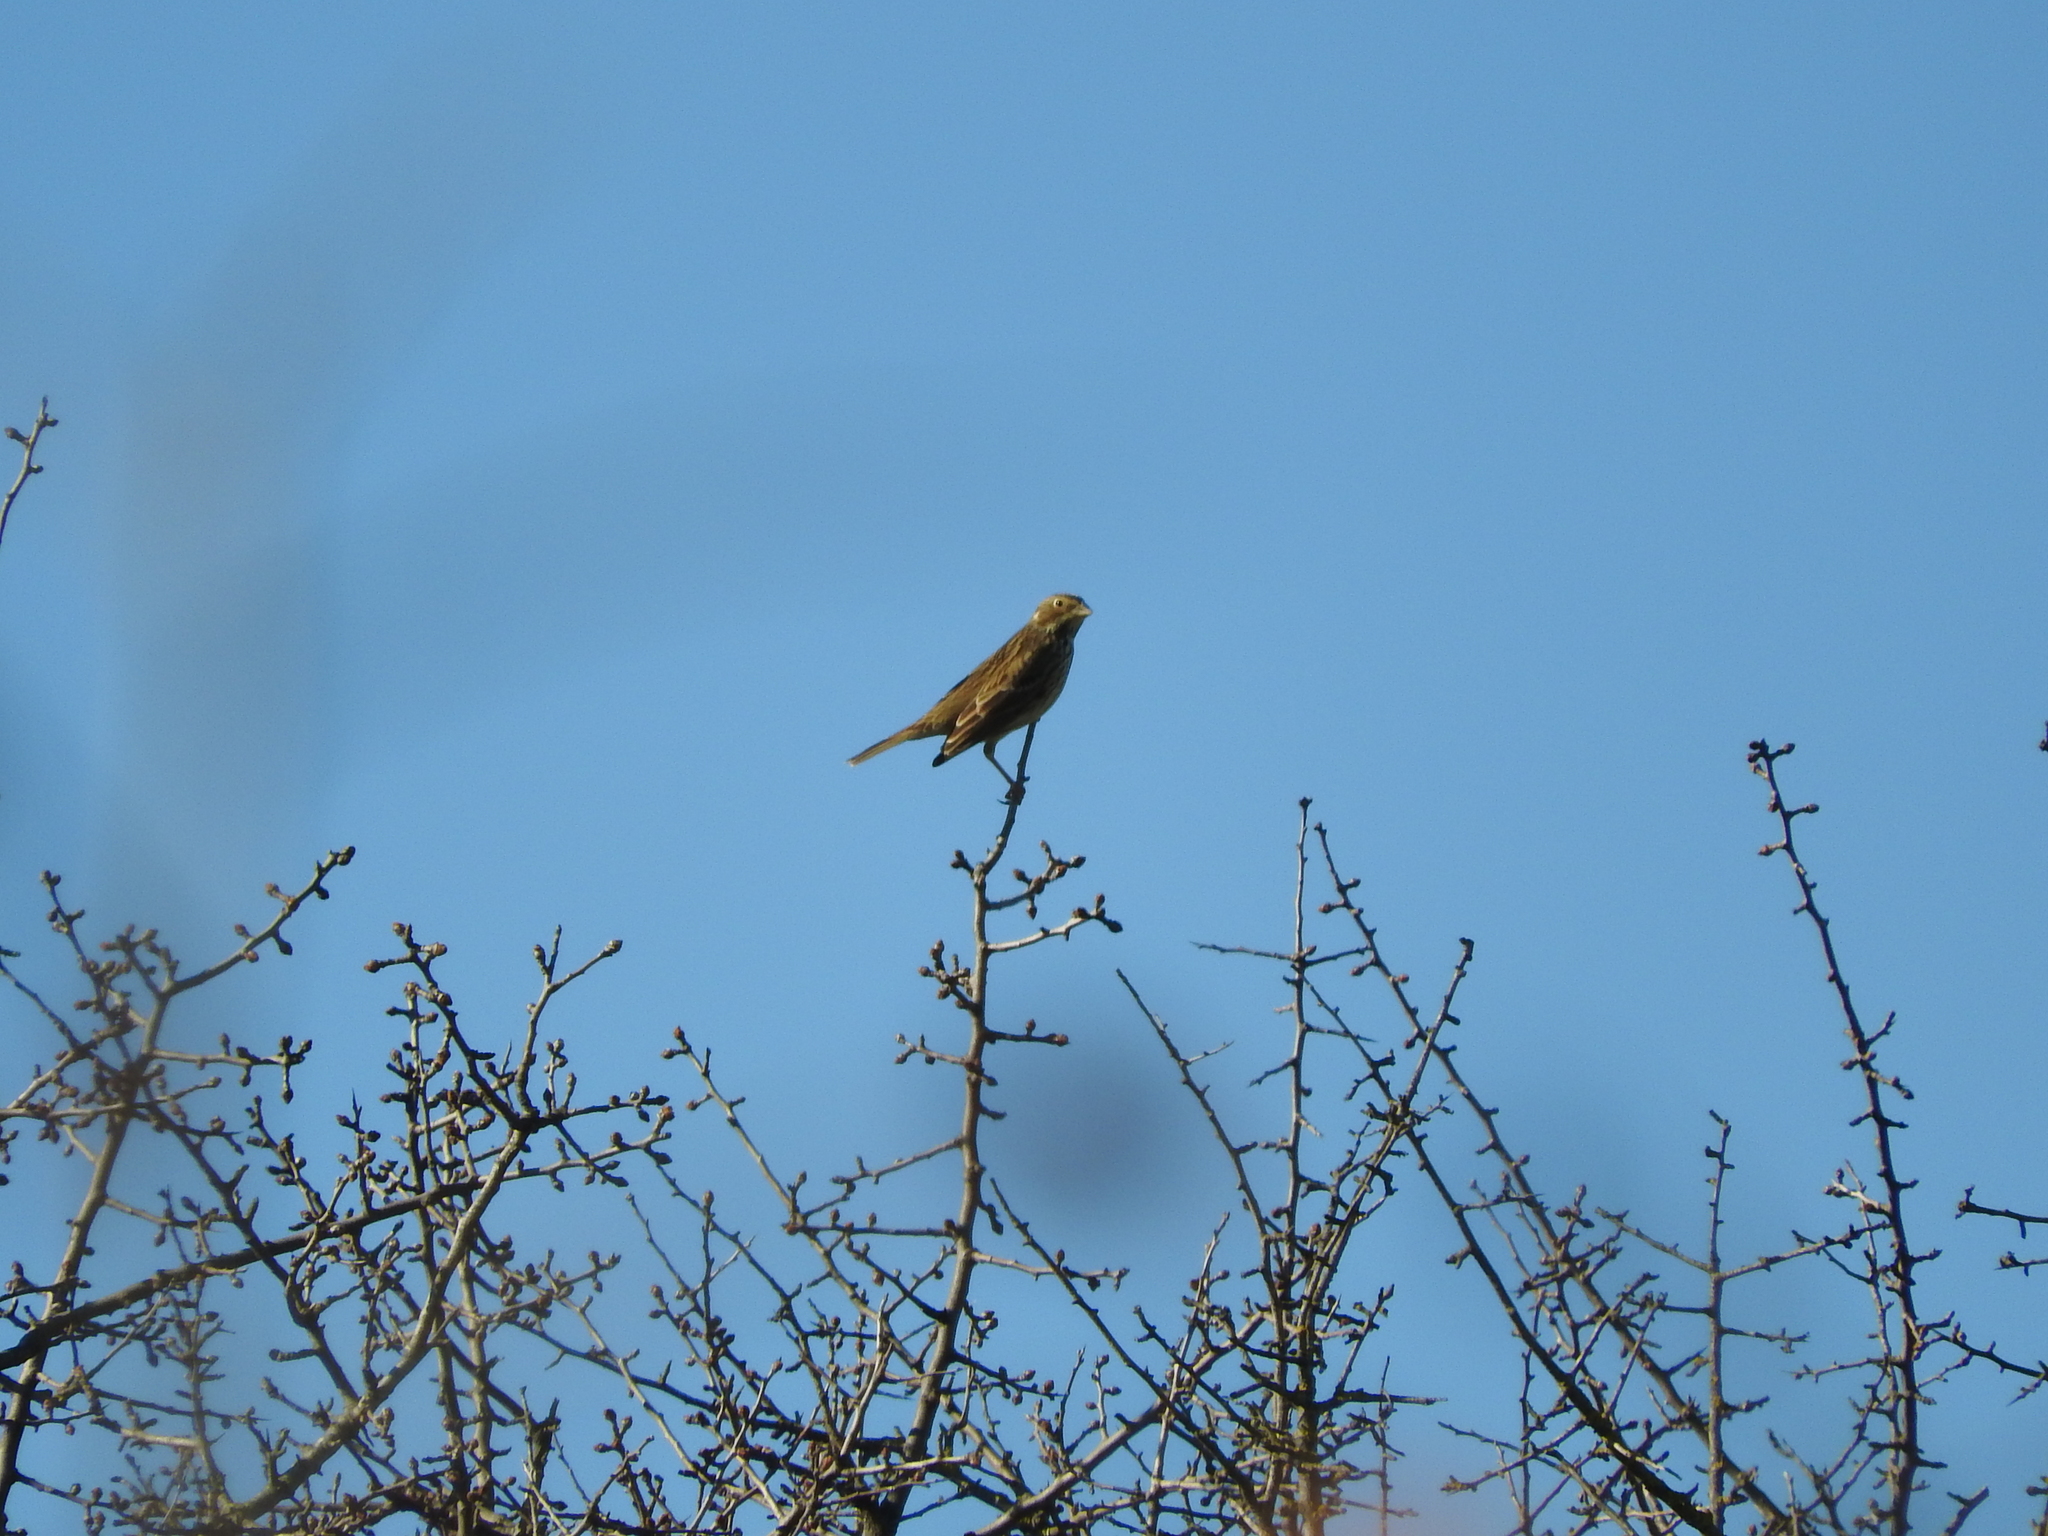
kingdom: Animalia
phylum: Chordata
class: Aves
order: Passeriformes
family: Emberizidae
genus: Emberiza
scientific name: Emberiza calandra
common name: Corn bunting
